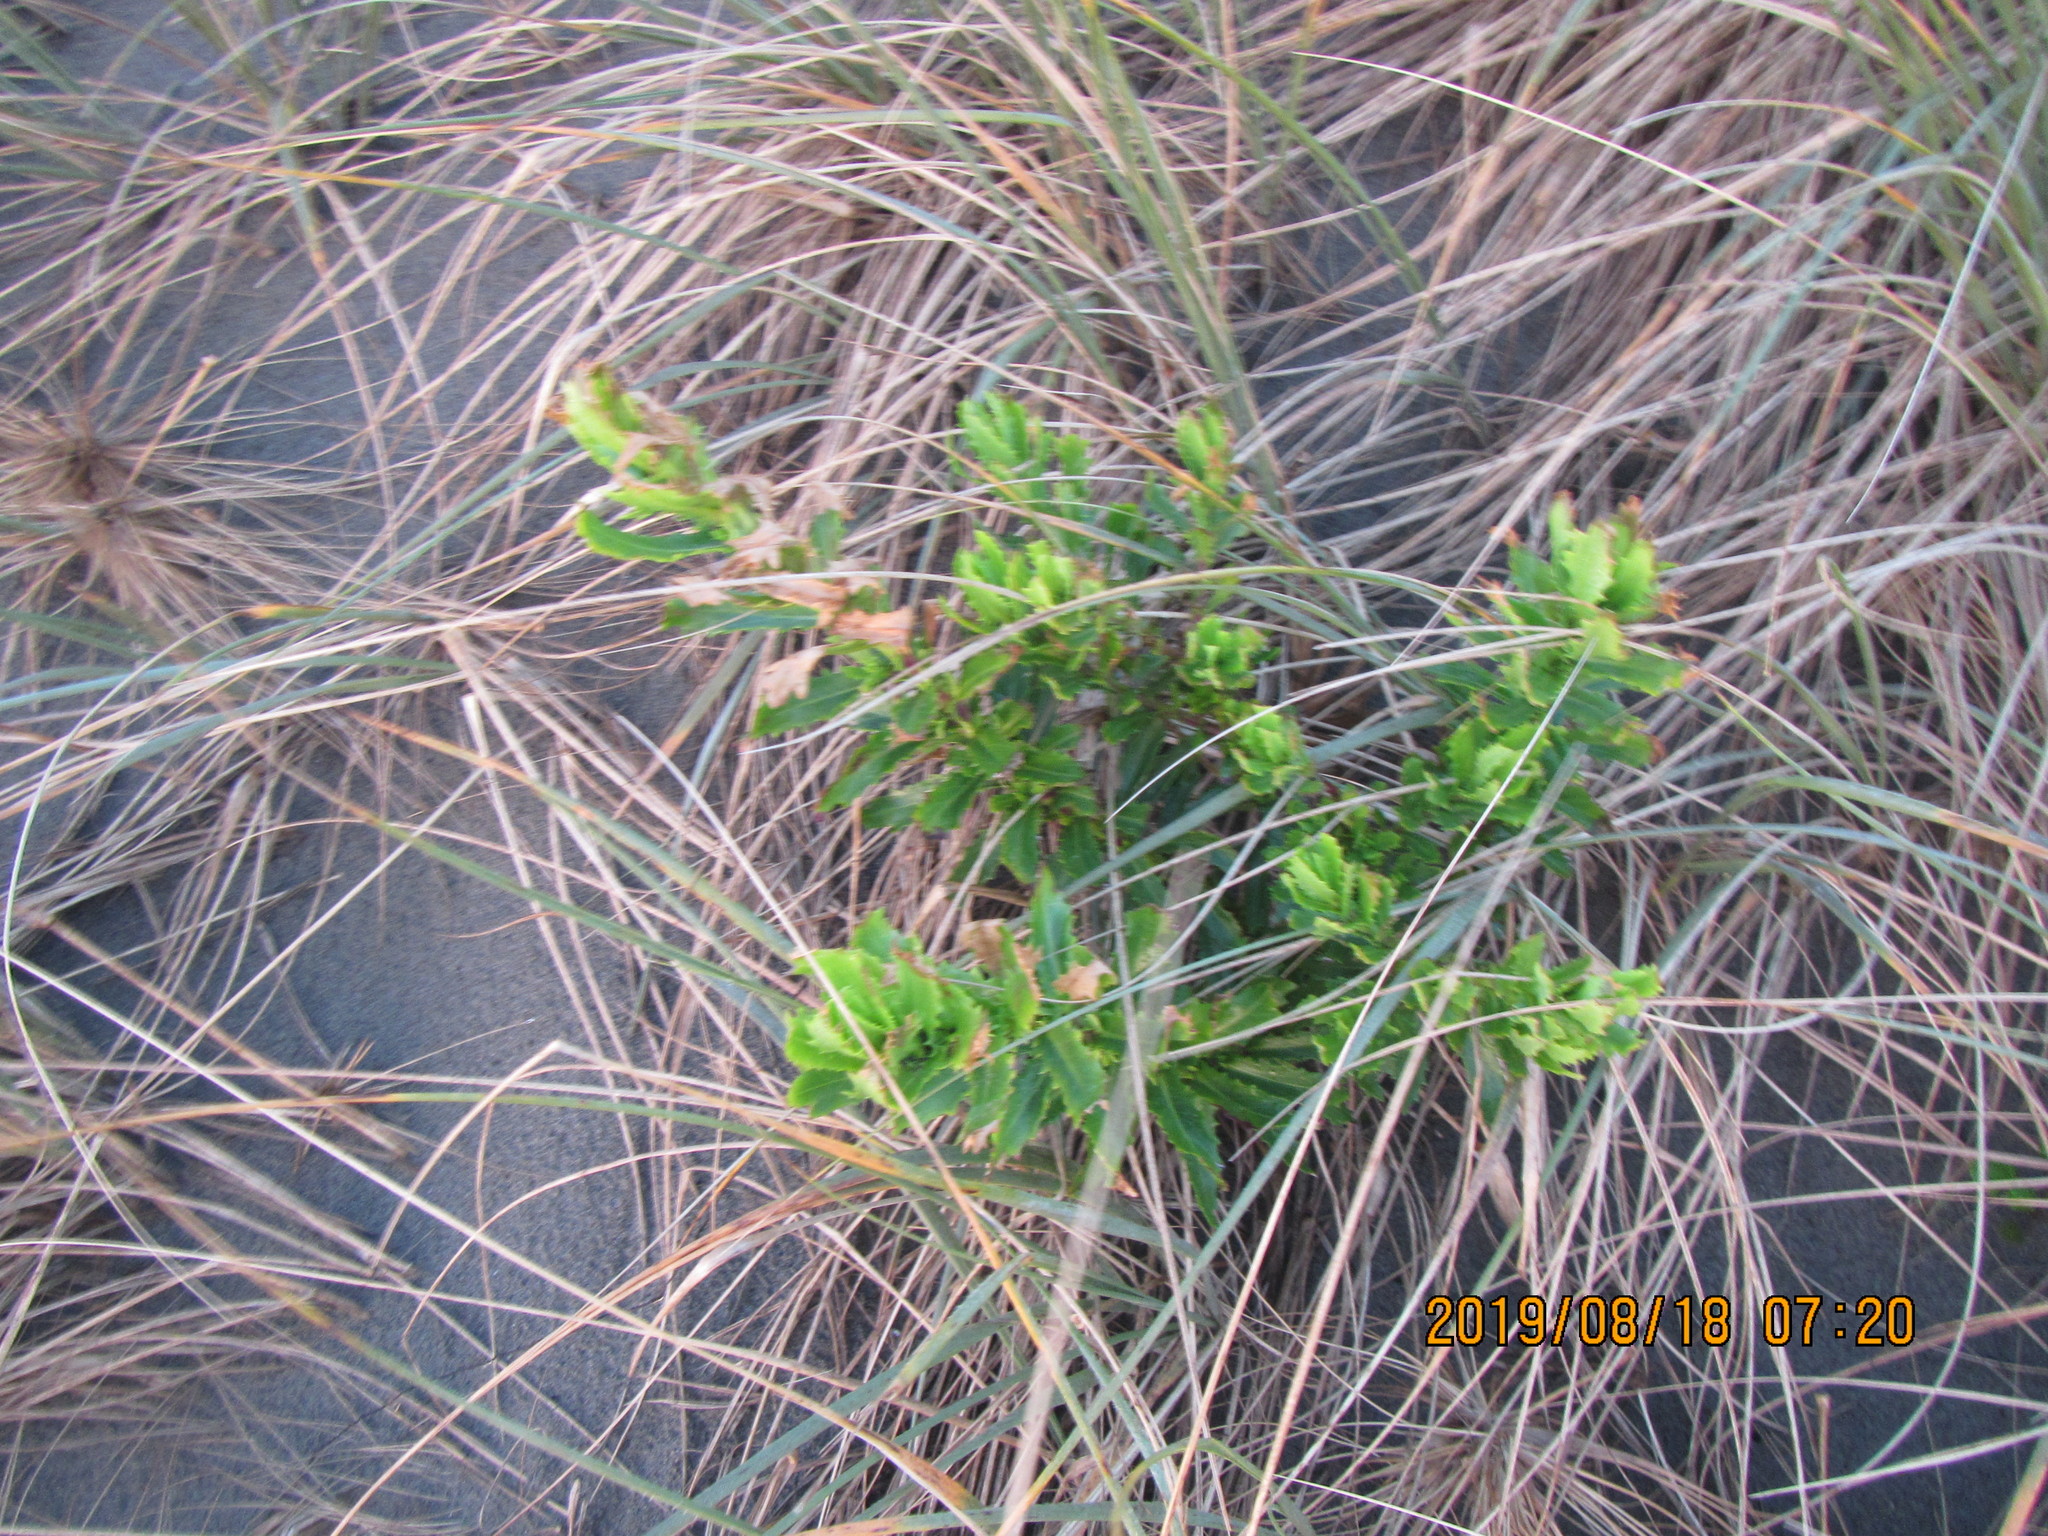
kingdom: Plantae
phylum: Tracheophyta
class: Magnoliopsida
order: Asterales
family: Asteraceae
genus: Senecio
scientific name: Senecio glastifolius
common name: Woad-leaved ragwort
